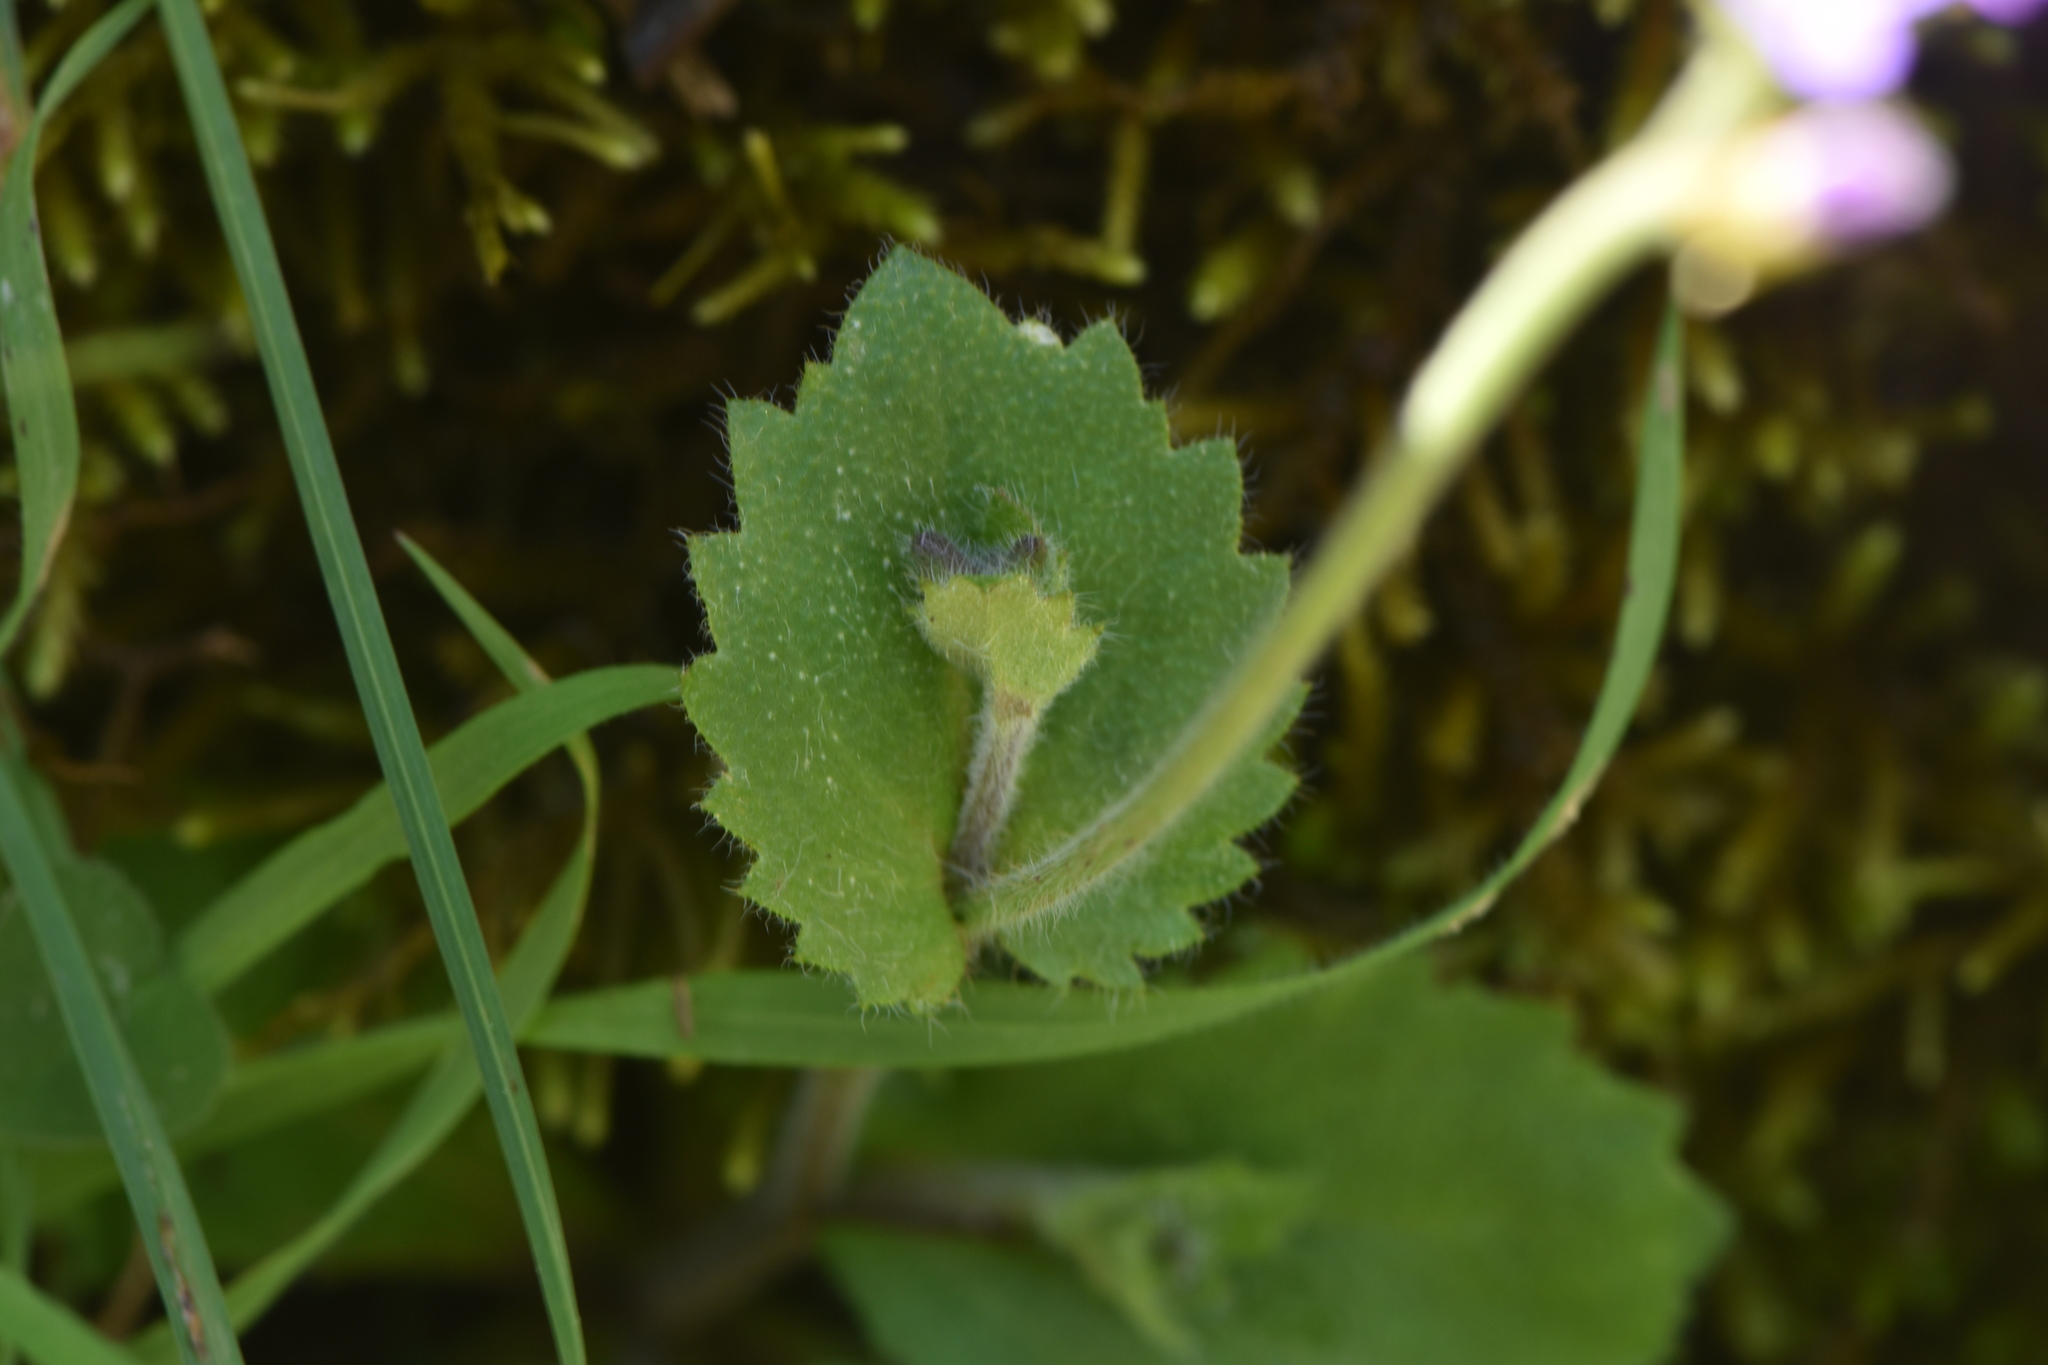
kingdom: Plantae
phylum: Tracheophyta
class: Magnoliopsida
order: Brassicales
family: Brassicaceae
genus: Arabis
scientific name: Arabis verna
